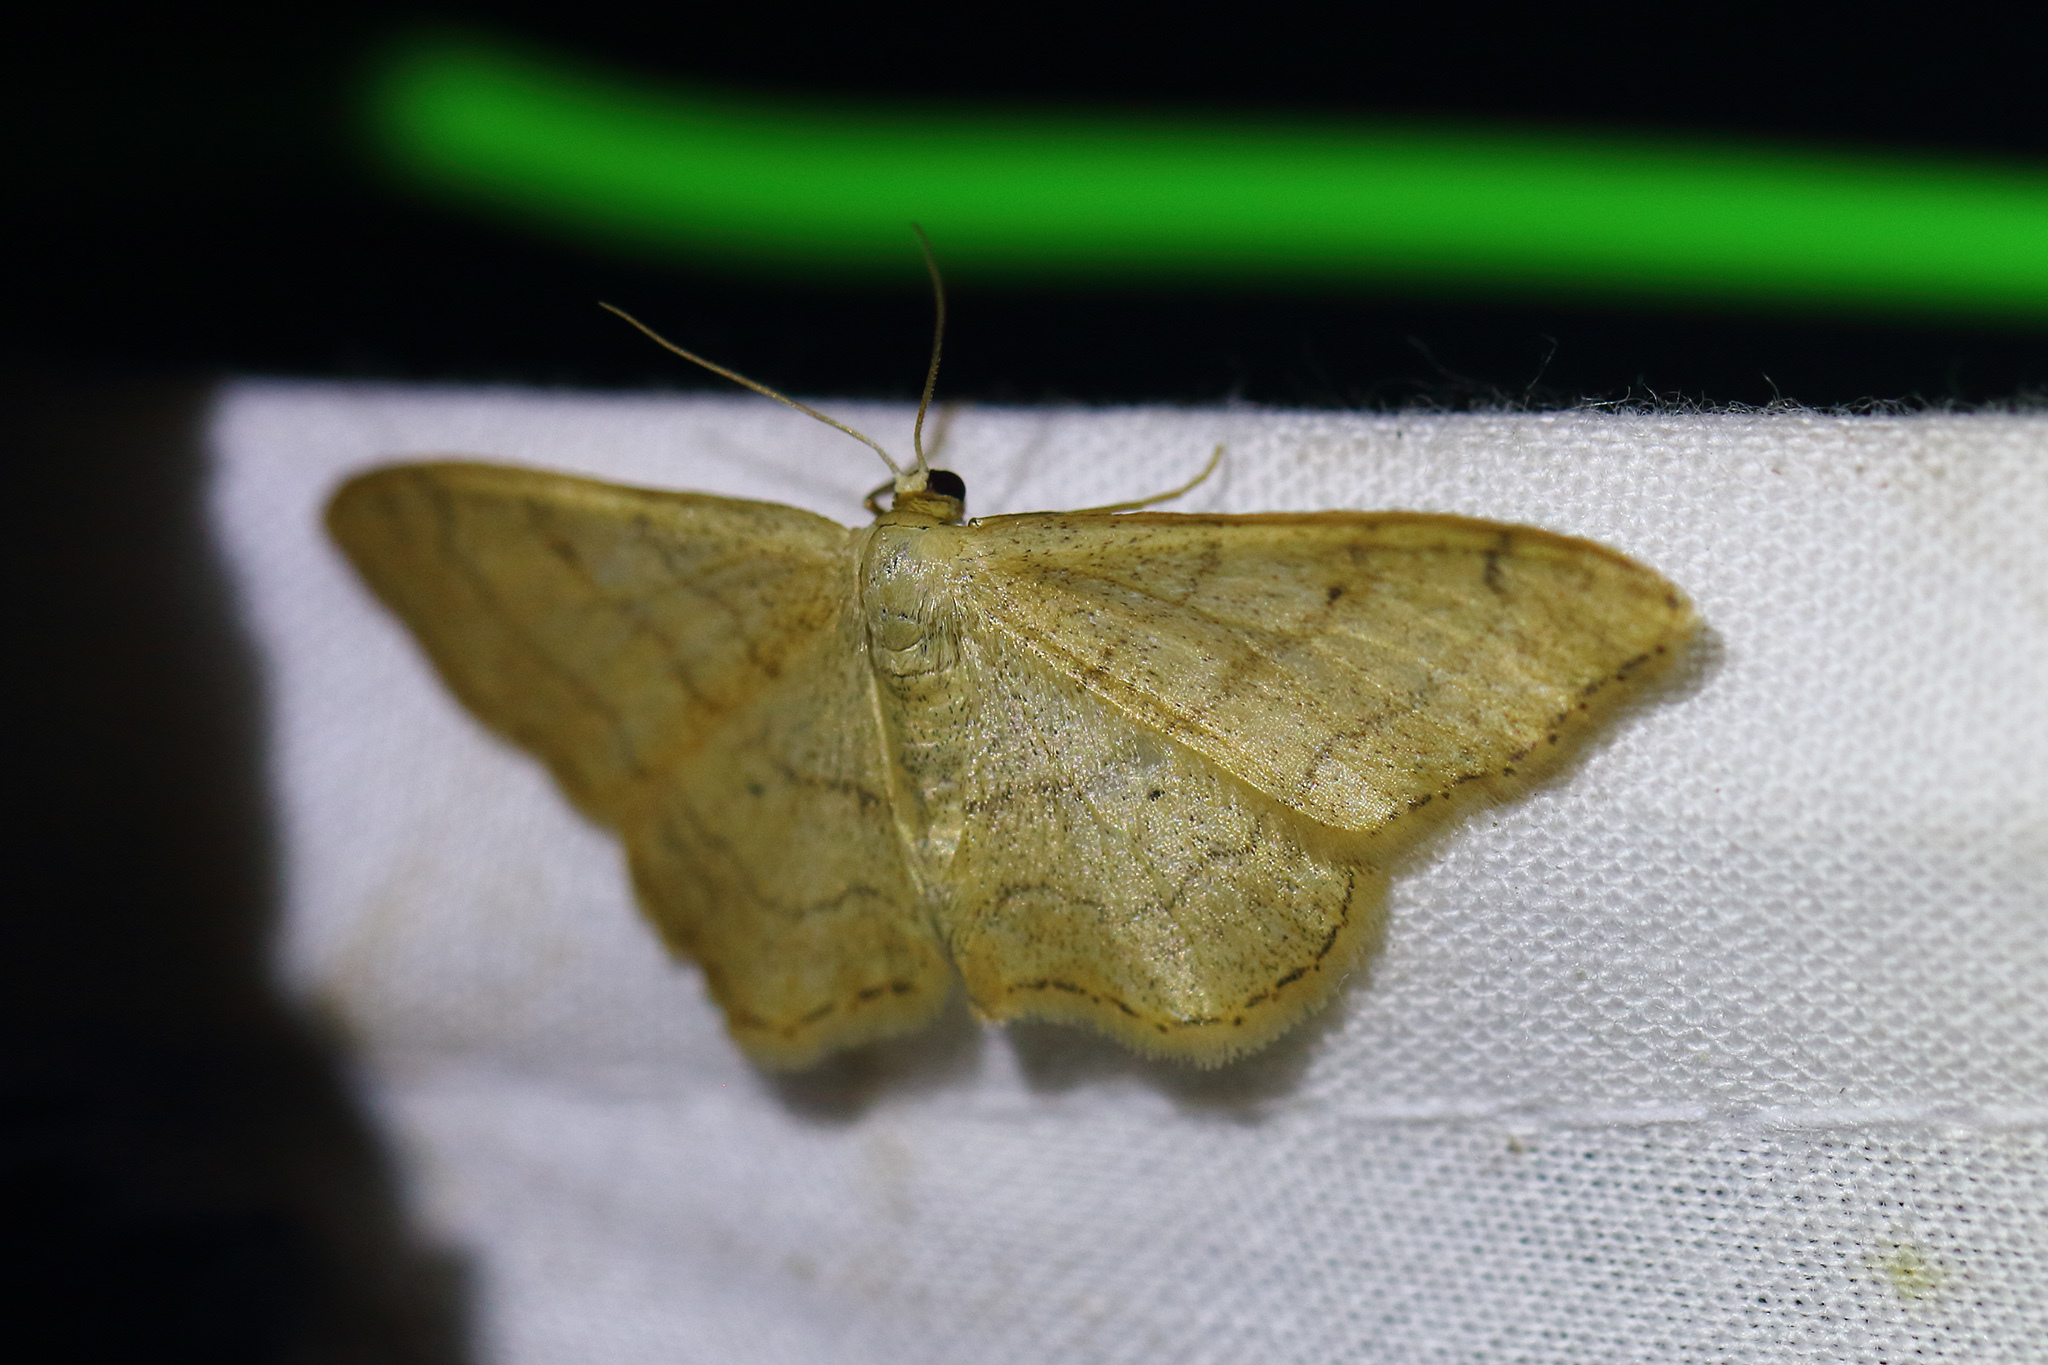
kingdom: Animalia
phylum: Arthropoda
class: Insecta
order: Lepidoptera
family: Geometridae
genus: Idaea
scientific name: Idaea aversata
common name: Riband wave
